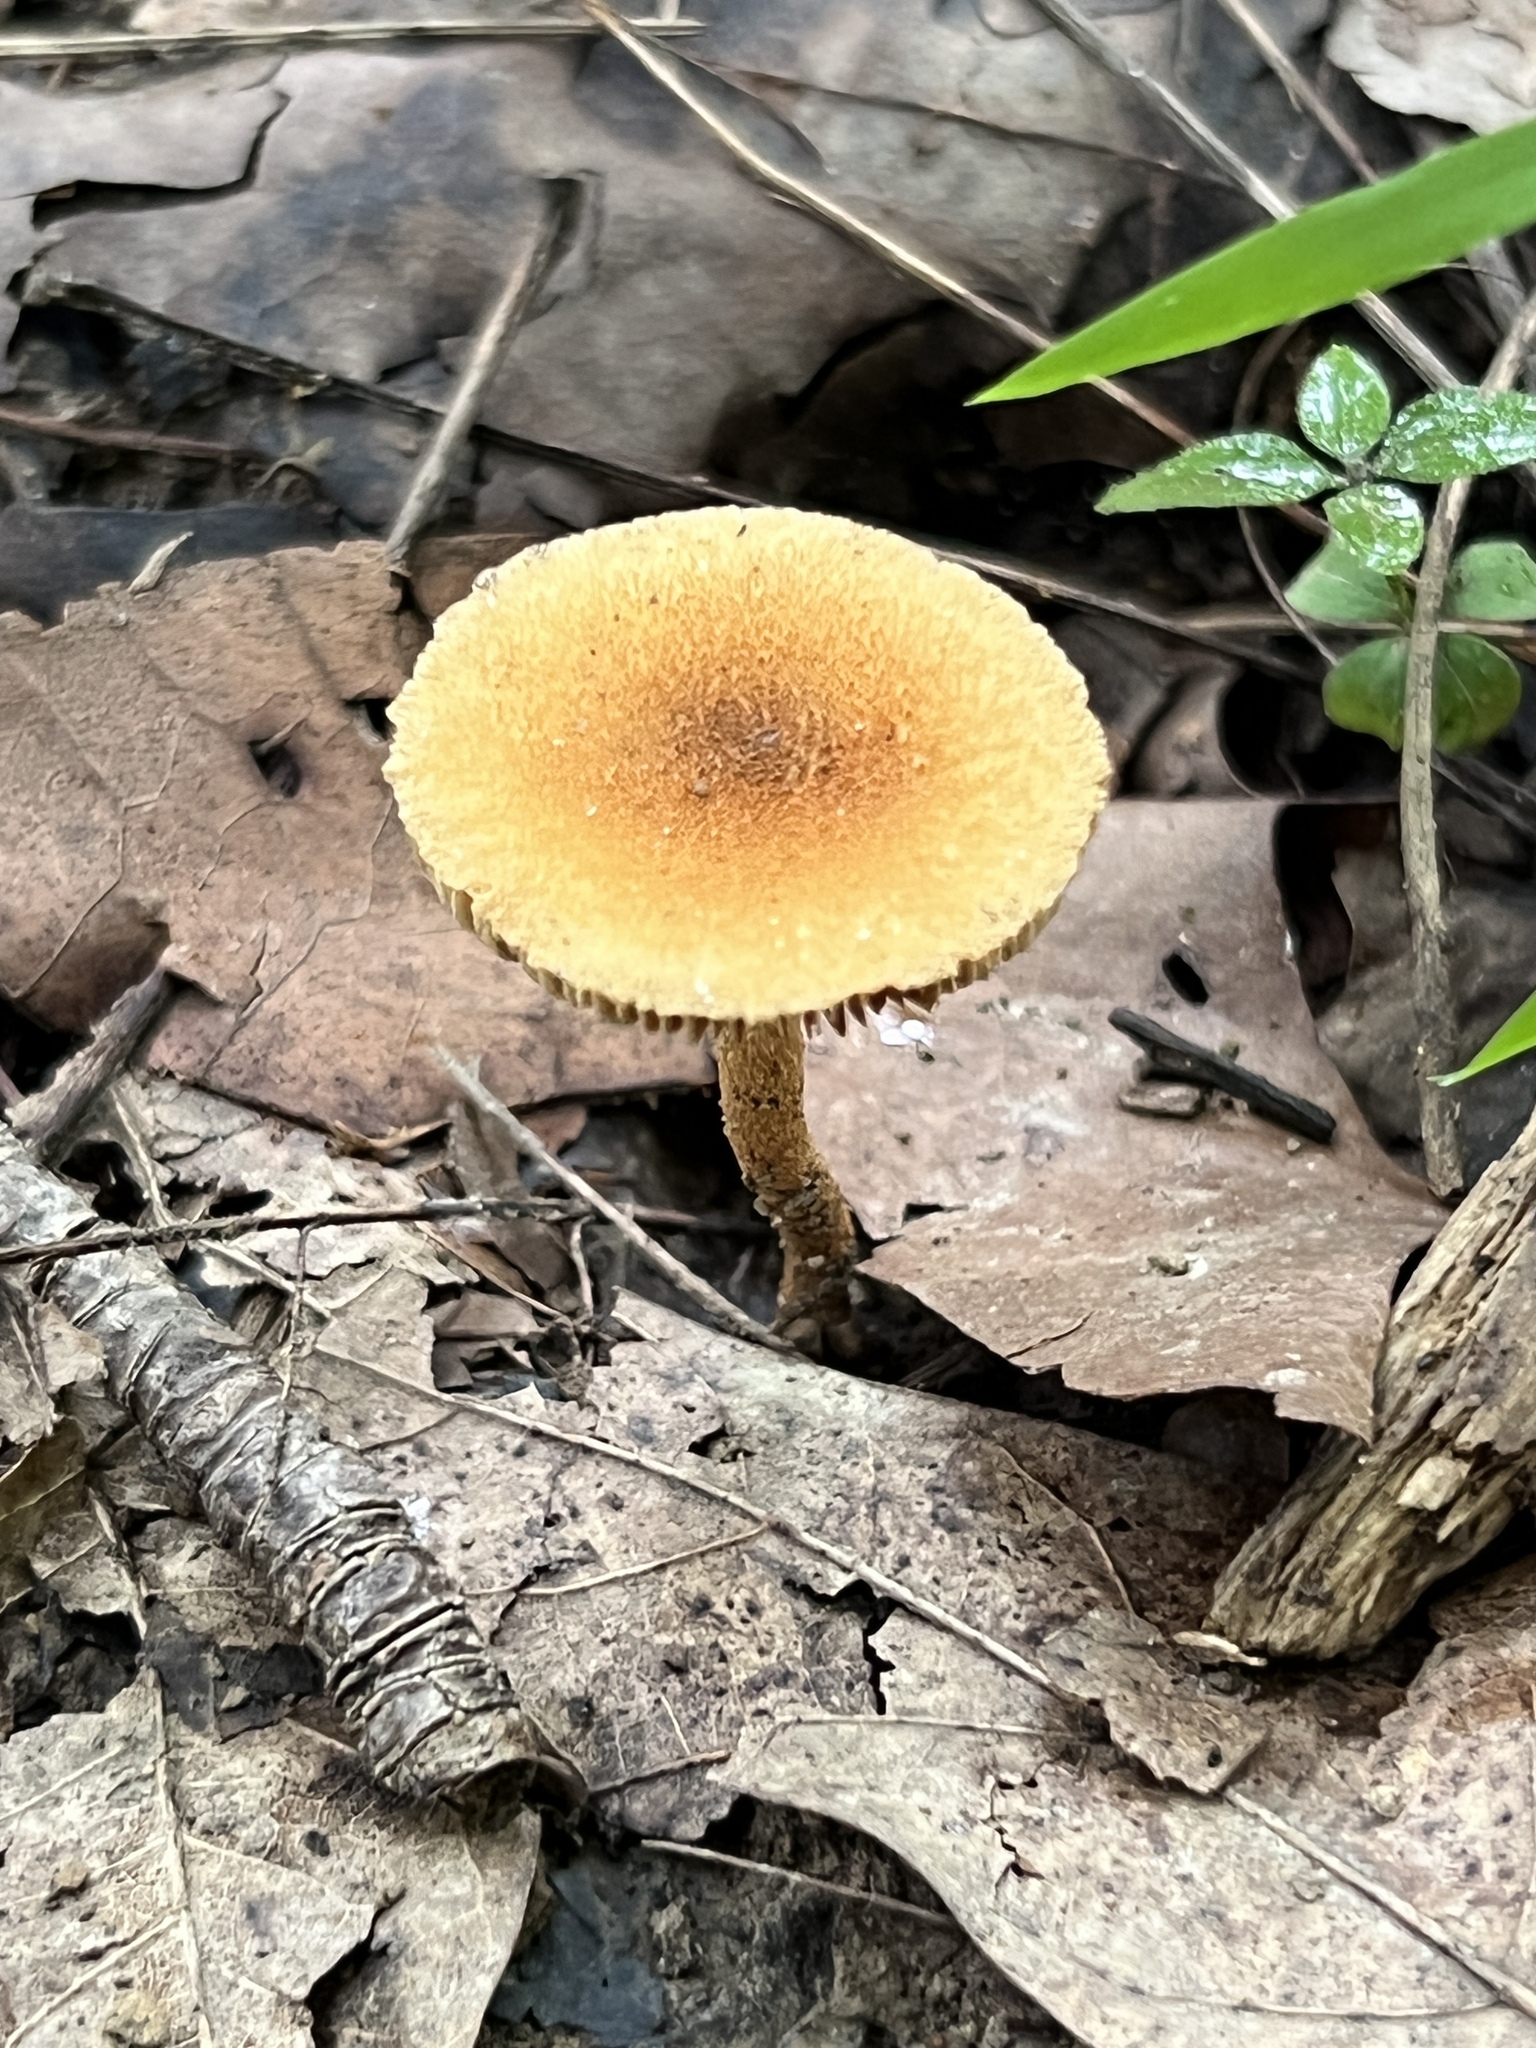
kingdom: Fungi
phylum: Basidiomycota
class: Agaricomycetes
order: Agaricales
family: Inocybaceae
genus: Mallocybe
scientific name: Mallocybe unicolor
